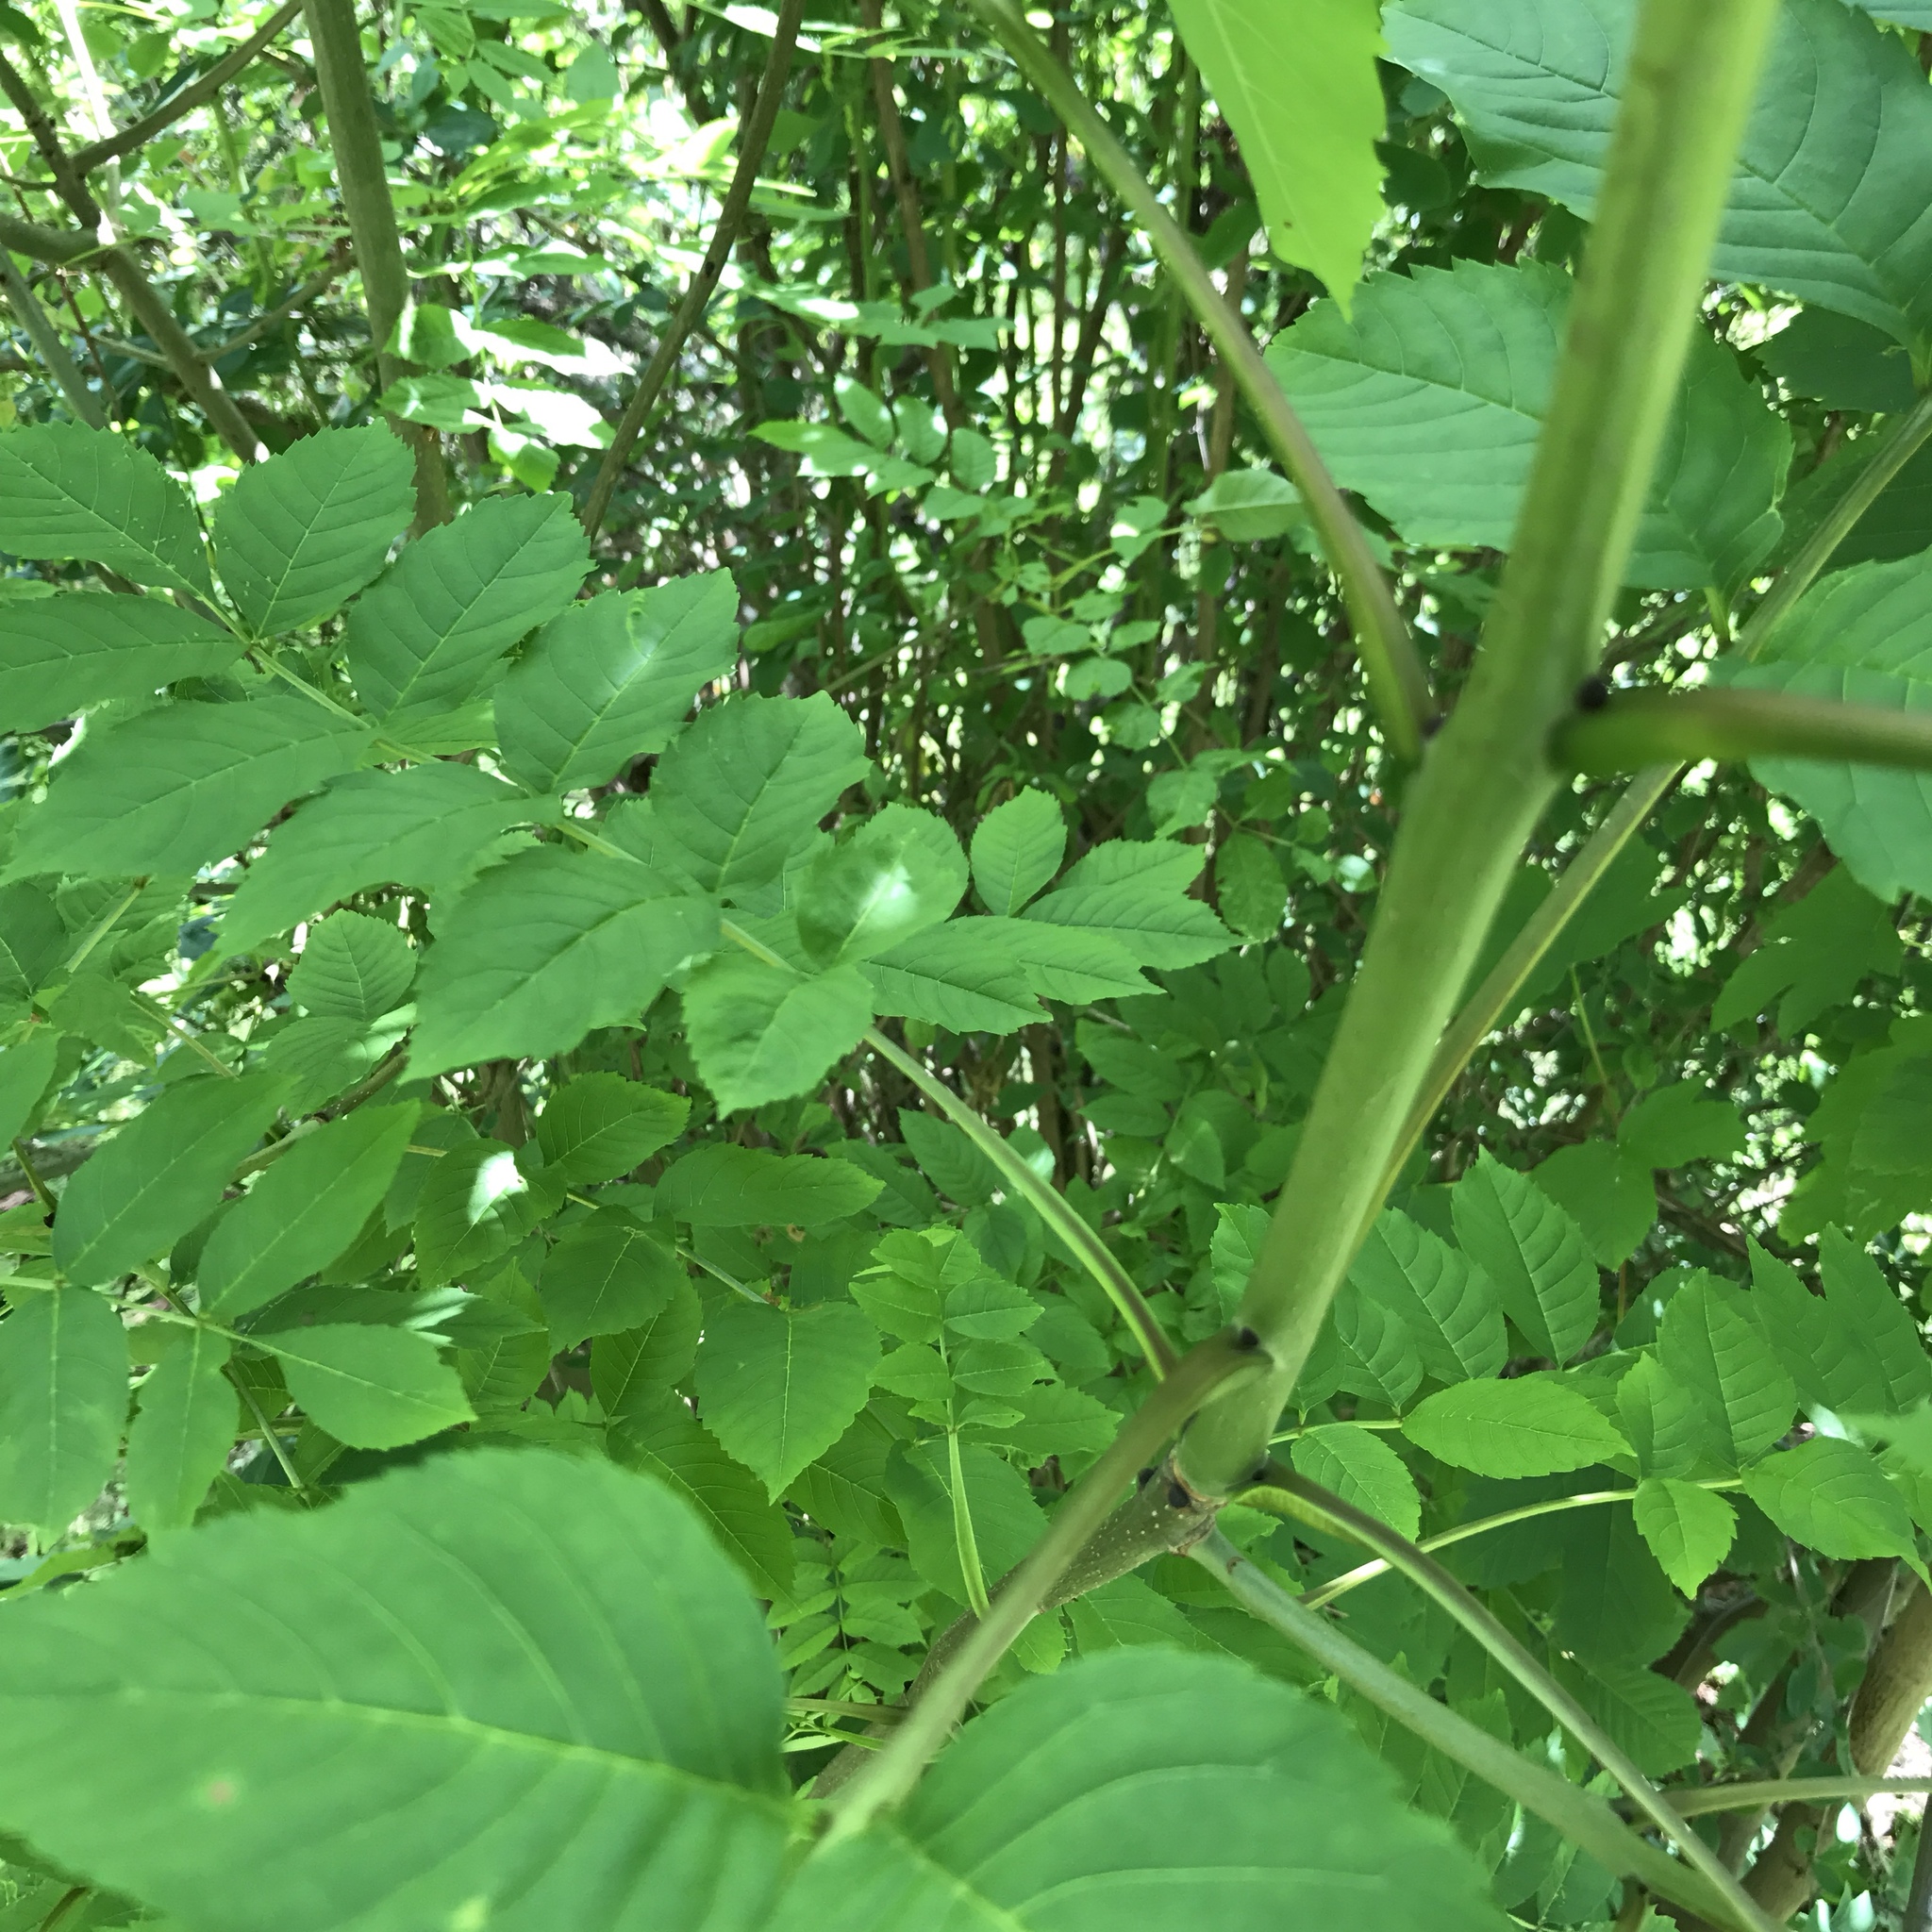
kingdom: Plantae
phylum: Tracheophyta
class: Magnoliopsida
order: Lamiales
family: Oleaceae
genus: Fraxinus
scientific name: Fraxinus excelsior
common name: European ash
